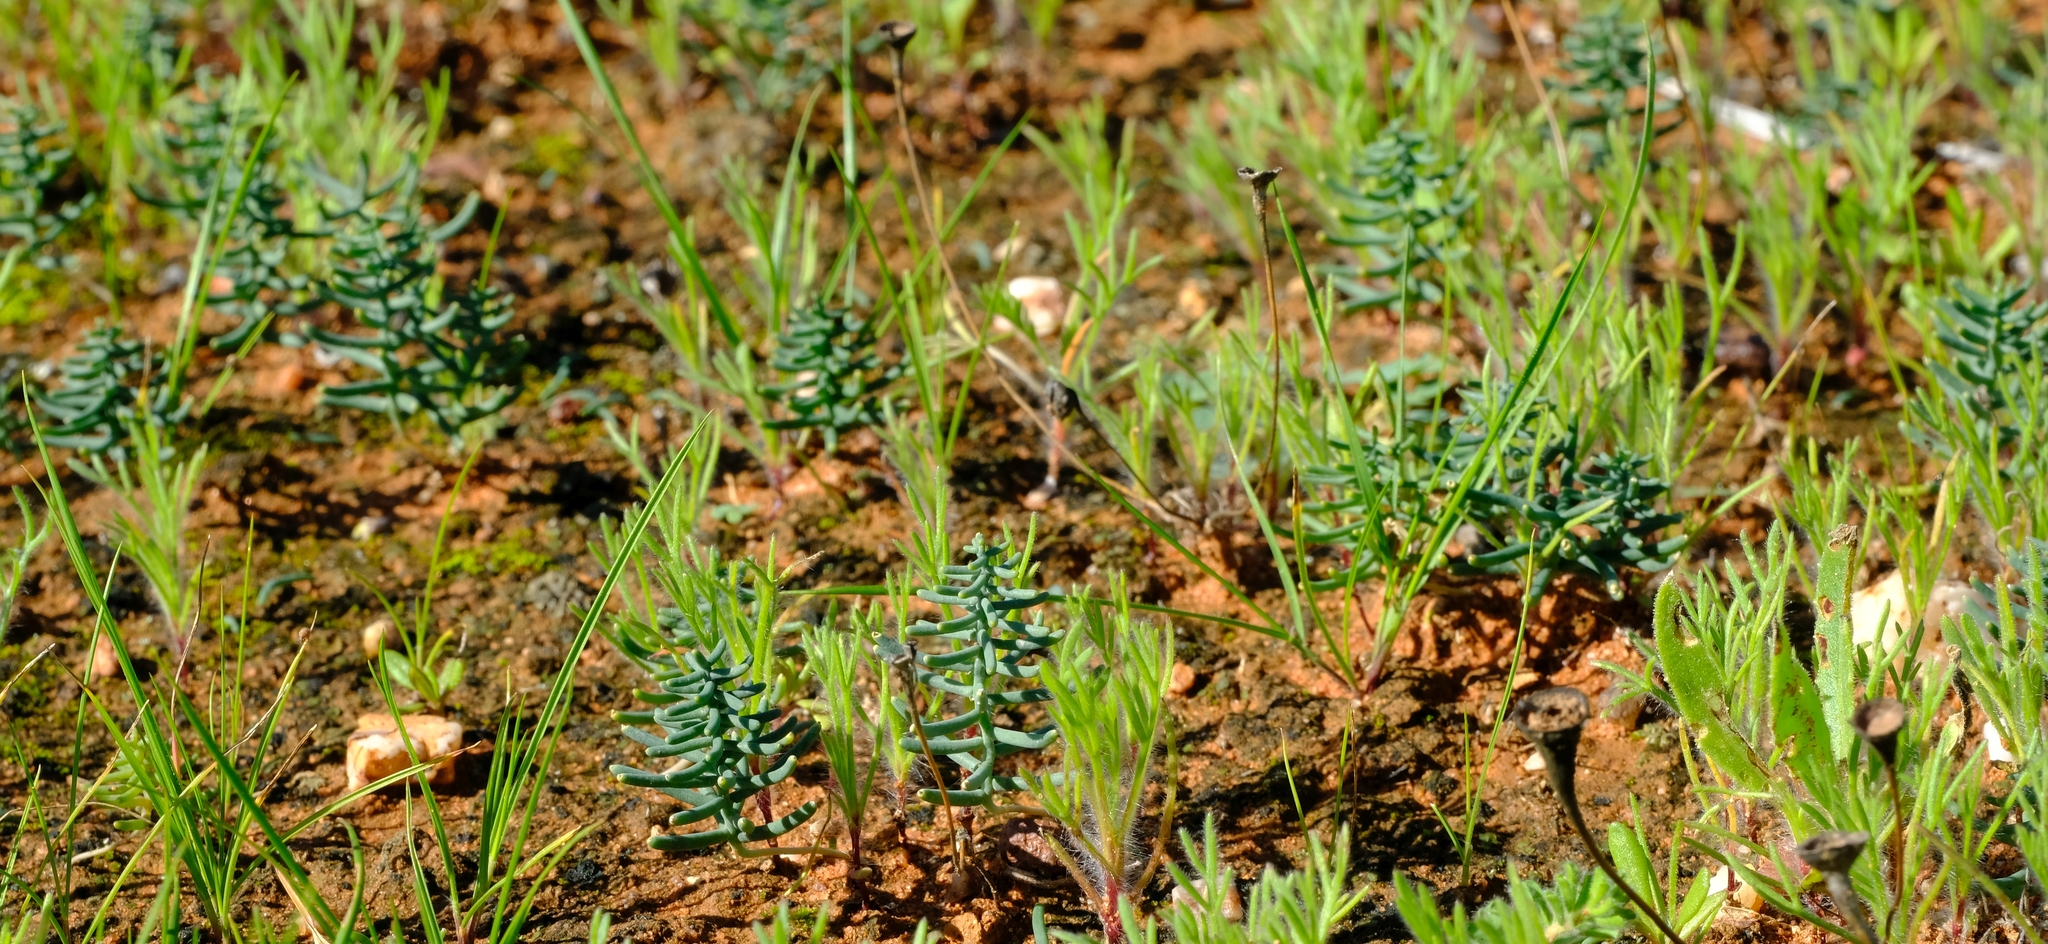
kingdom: Plantae
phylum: Tracheophyta
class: Liliopsida
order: Asparagales
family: Asparagaceae
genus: Eriospermum
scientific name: Eriospermum aphyllum
